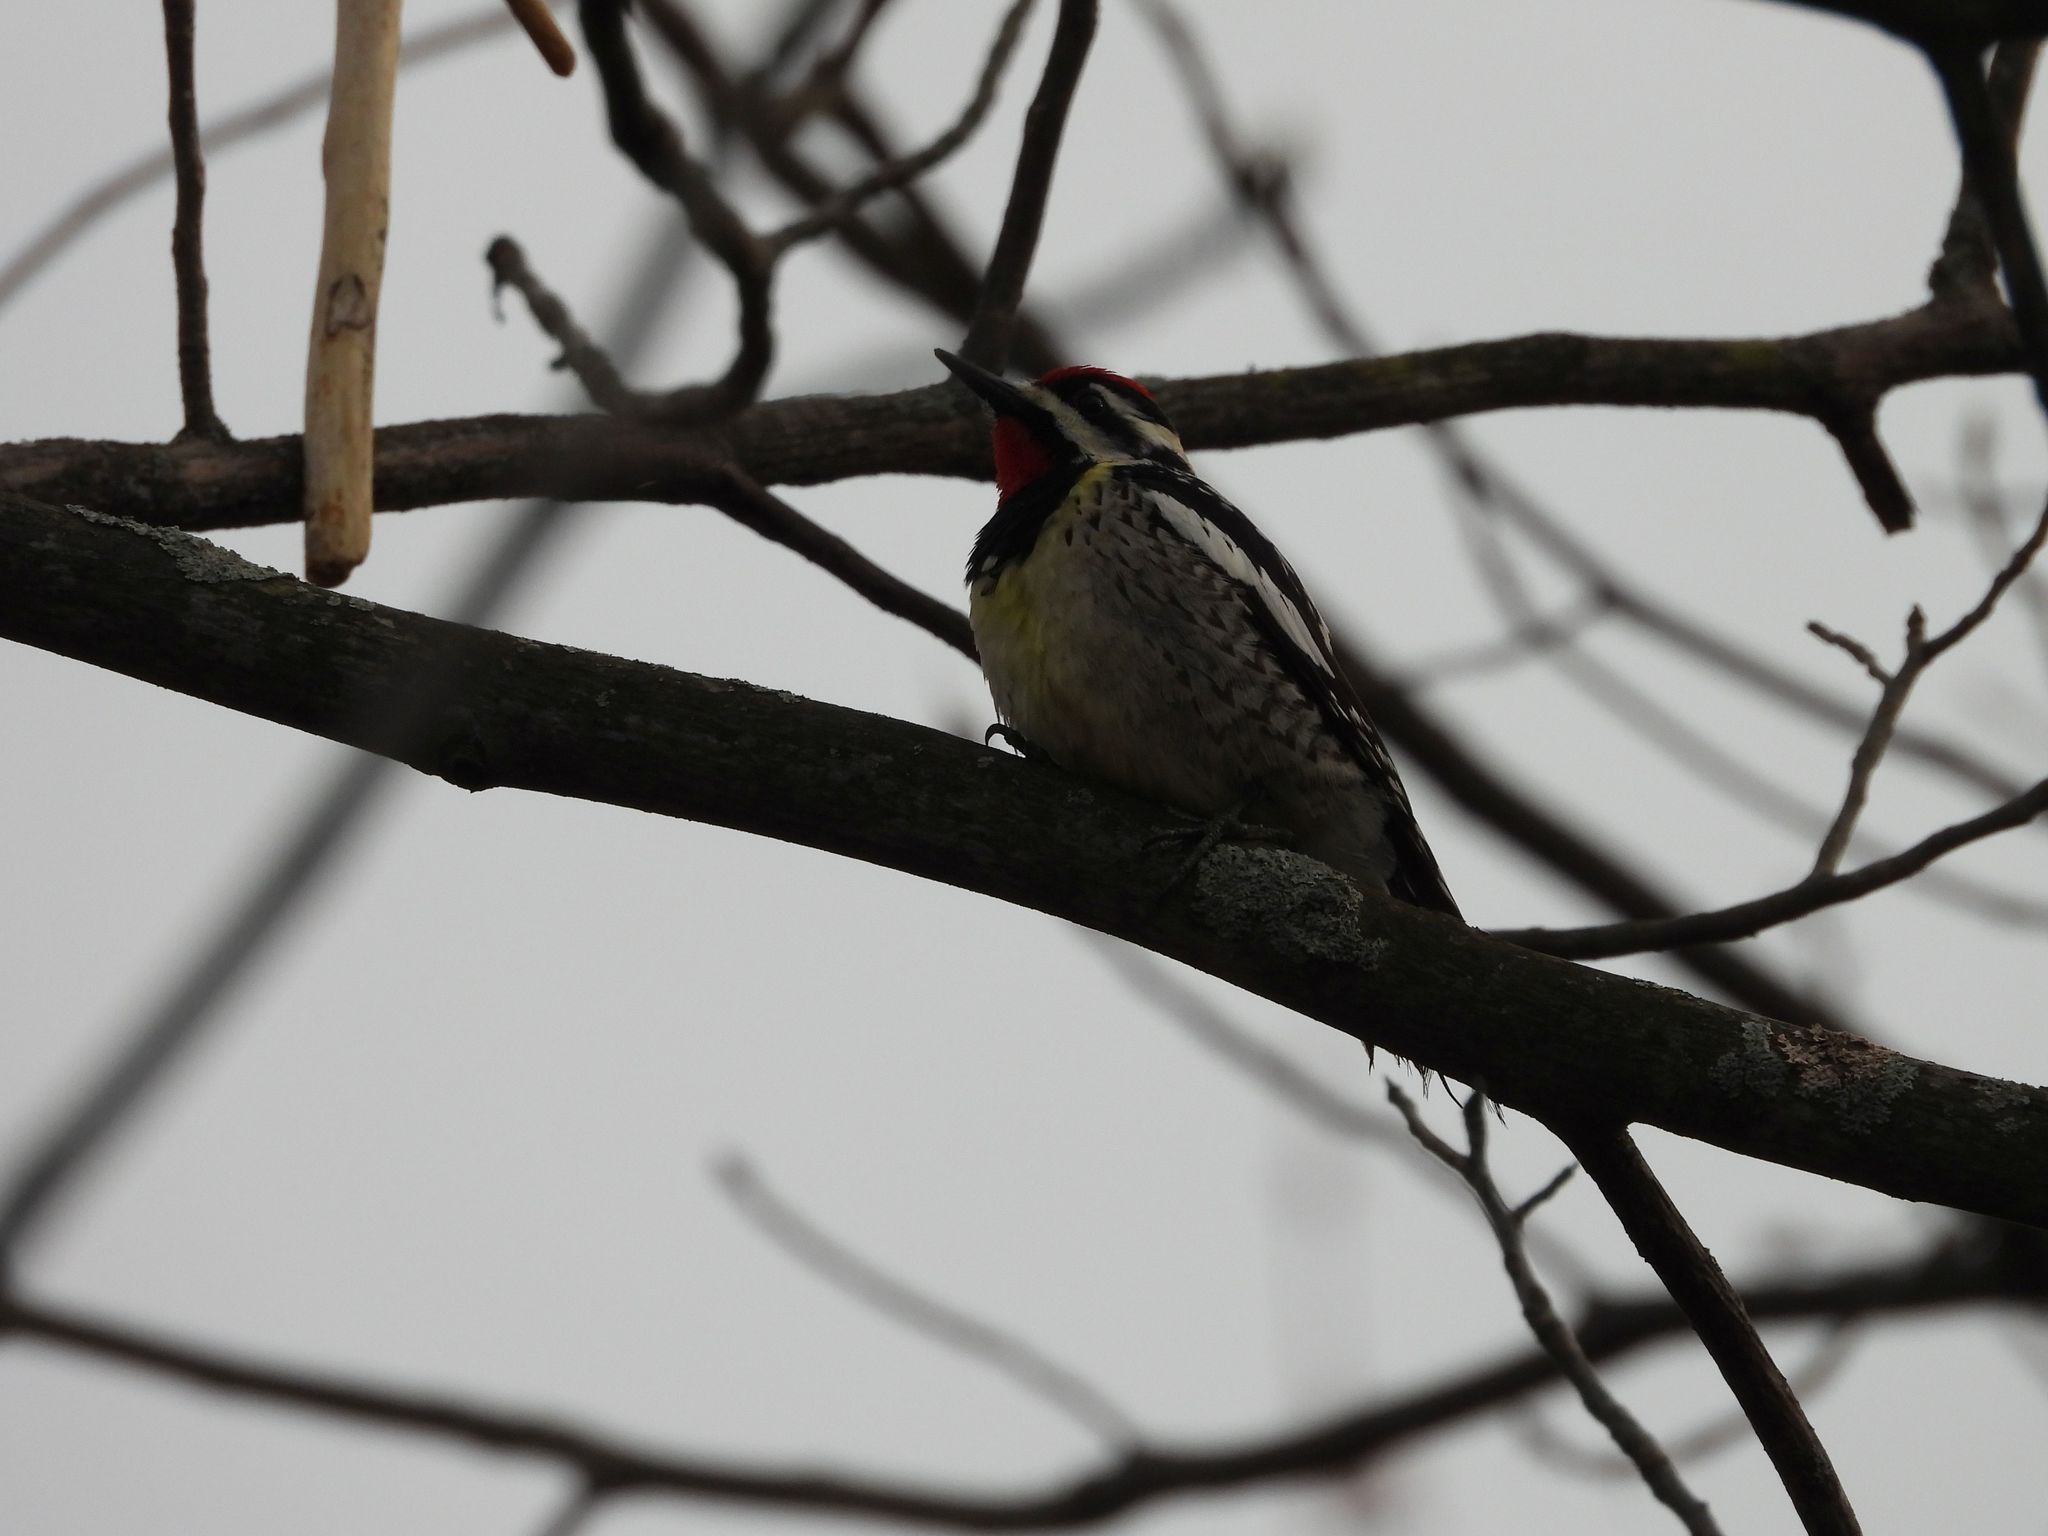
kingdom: Animalia
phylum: Chordata
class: Aves
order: Piciformes
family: Picidae
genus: Sphyrapicus
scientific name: Sphyrapicus varius
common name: Yellow-bellied sapsucker
